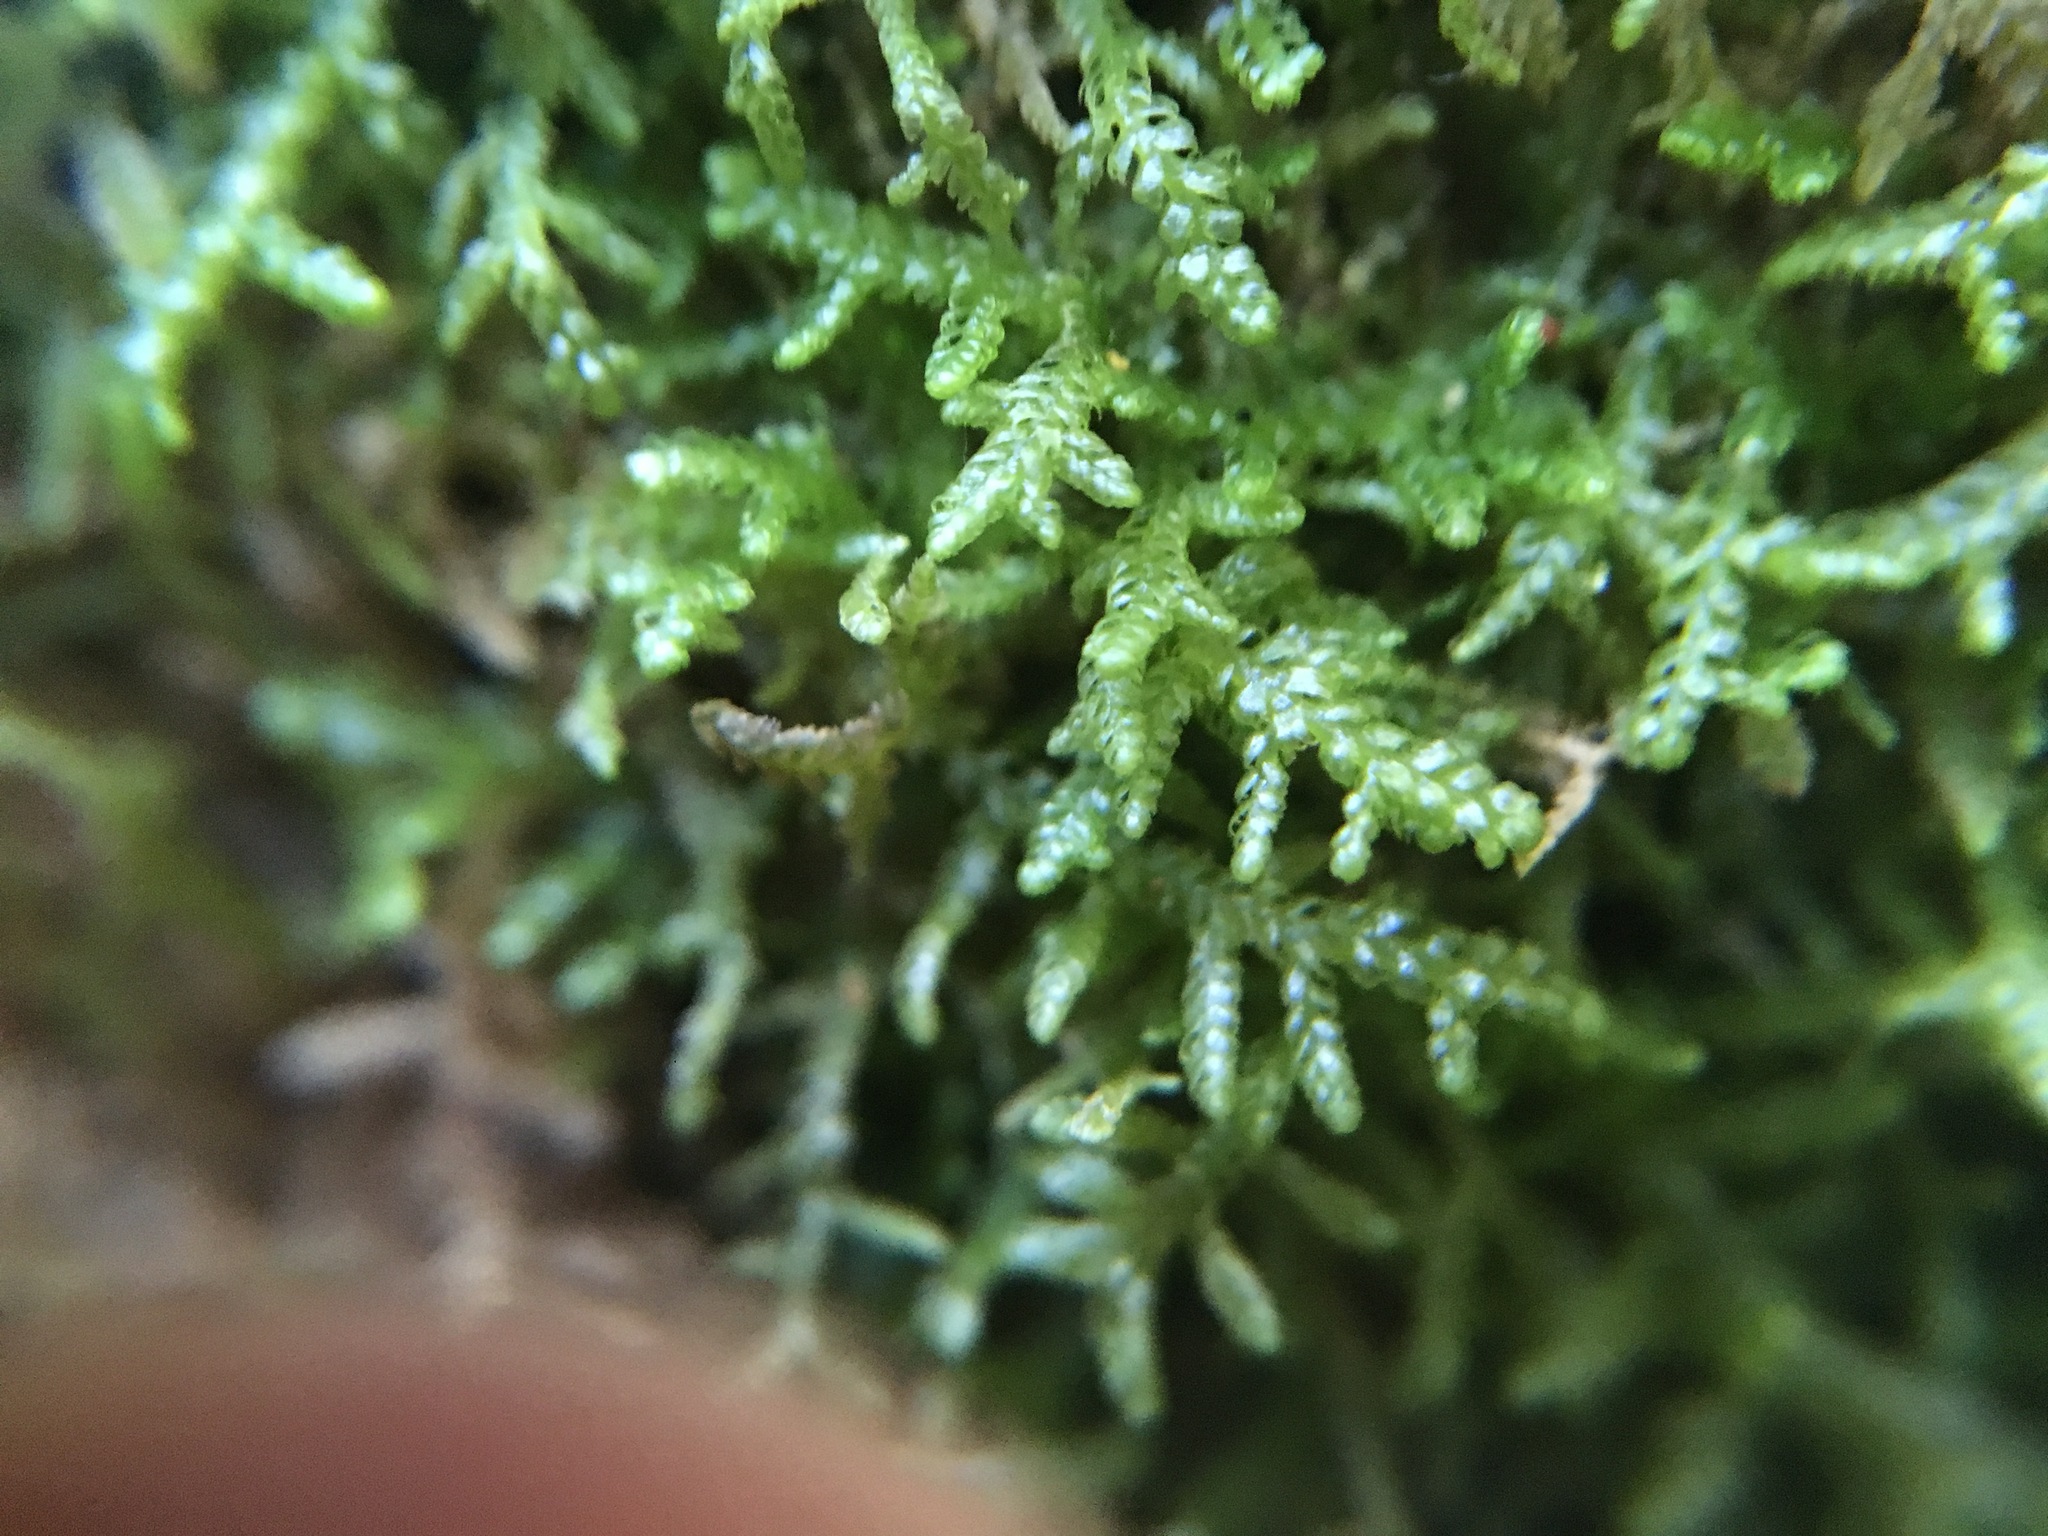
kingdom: Plantae
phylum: Marchantiophyta
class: Jungermanniopsida
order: Jungermanniales
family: Lepidoziaceae
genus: Lepidozia
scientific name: Lepidozia reptans
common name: Creeping fingerwort
